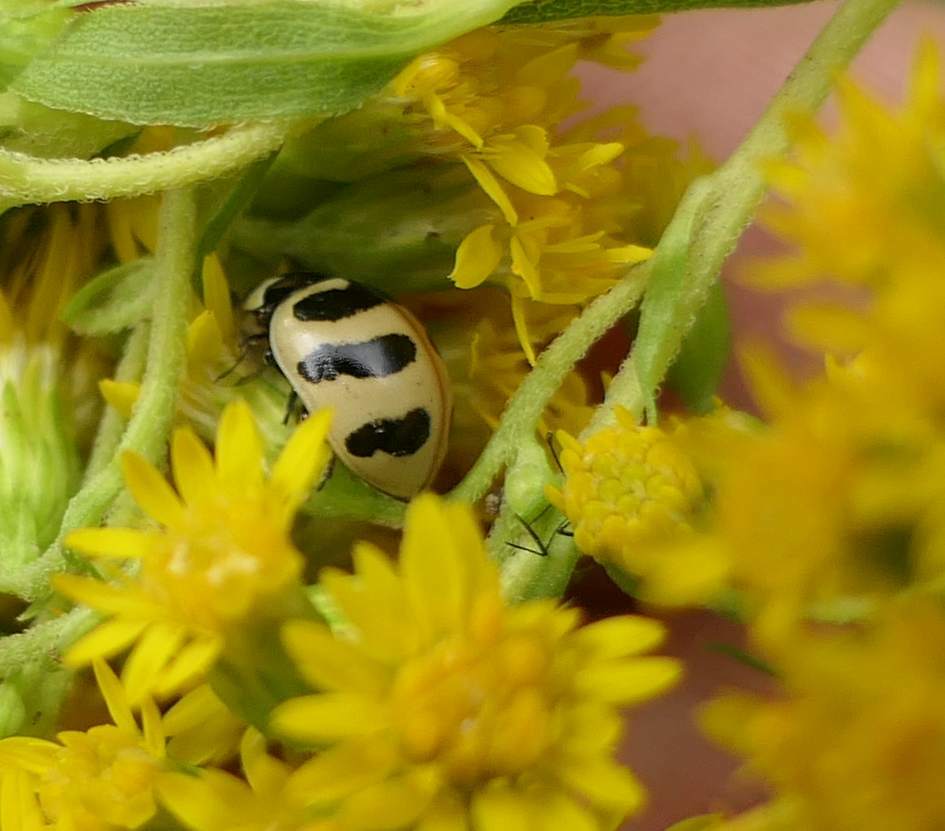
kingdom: Animalia
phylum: Arthropoda
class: Insecta
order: Coleoptera
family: Coccinellidae
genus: Coccinella
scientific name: Coccinella trifasciata
